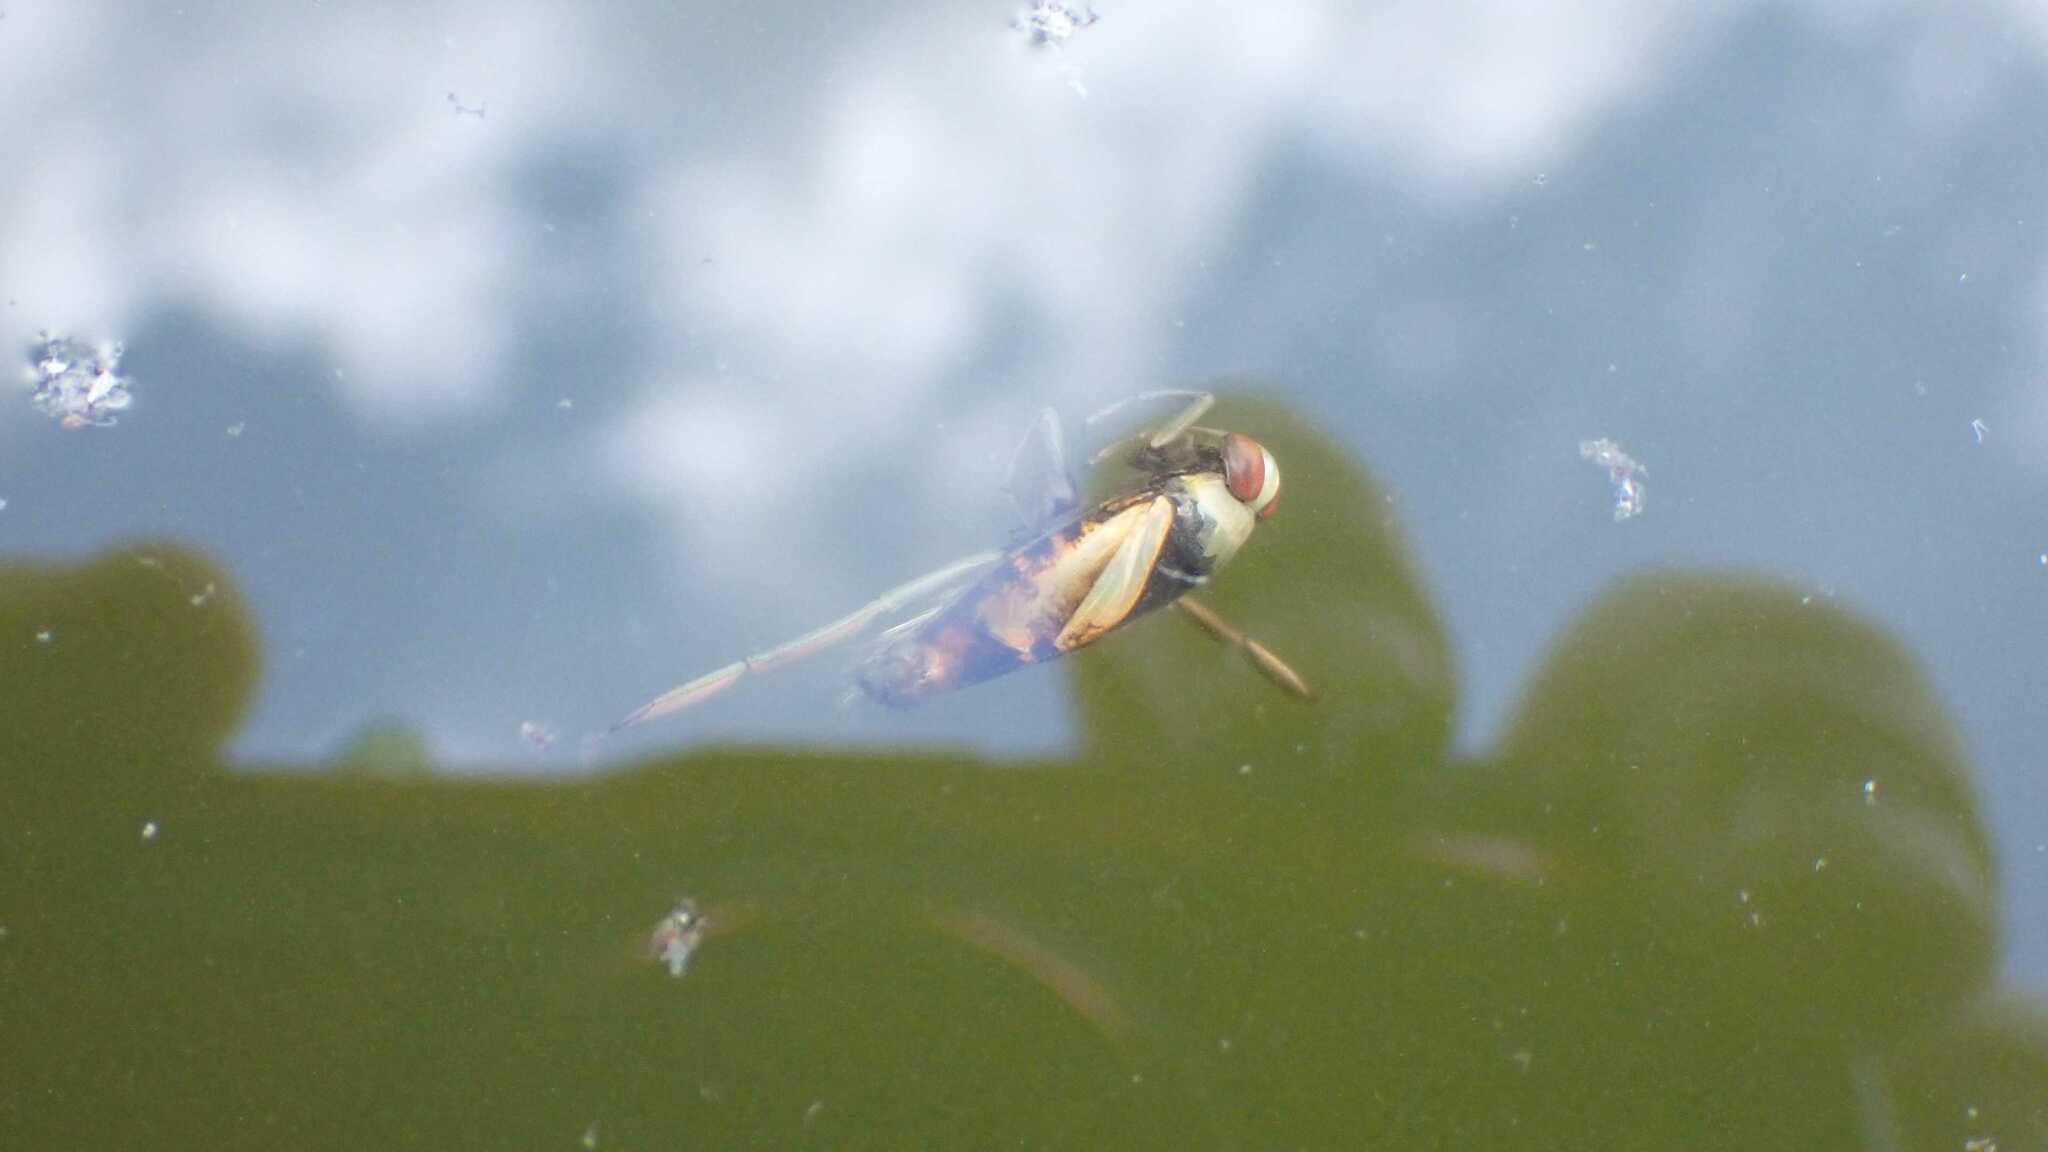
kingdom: Animalia
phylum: Arthropoda
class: Insecta
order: Hemiptera
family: Notonectidae
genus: Notonecta
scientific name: Notonecta glauca
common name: Common water-boatman
